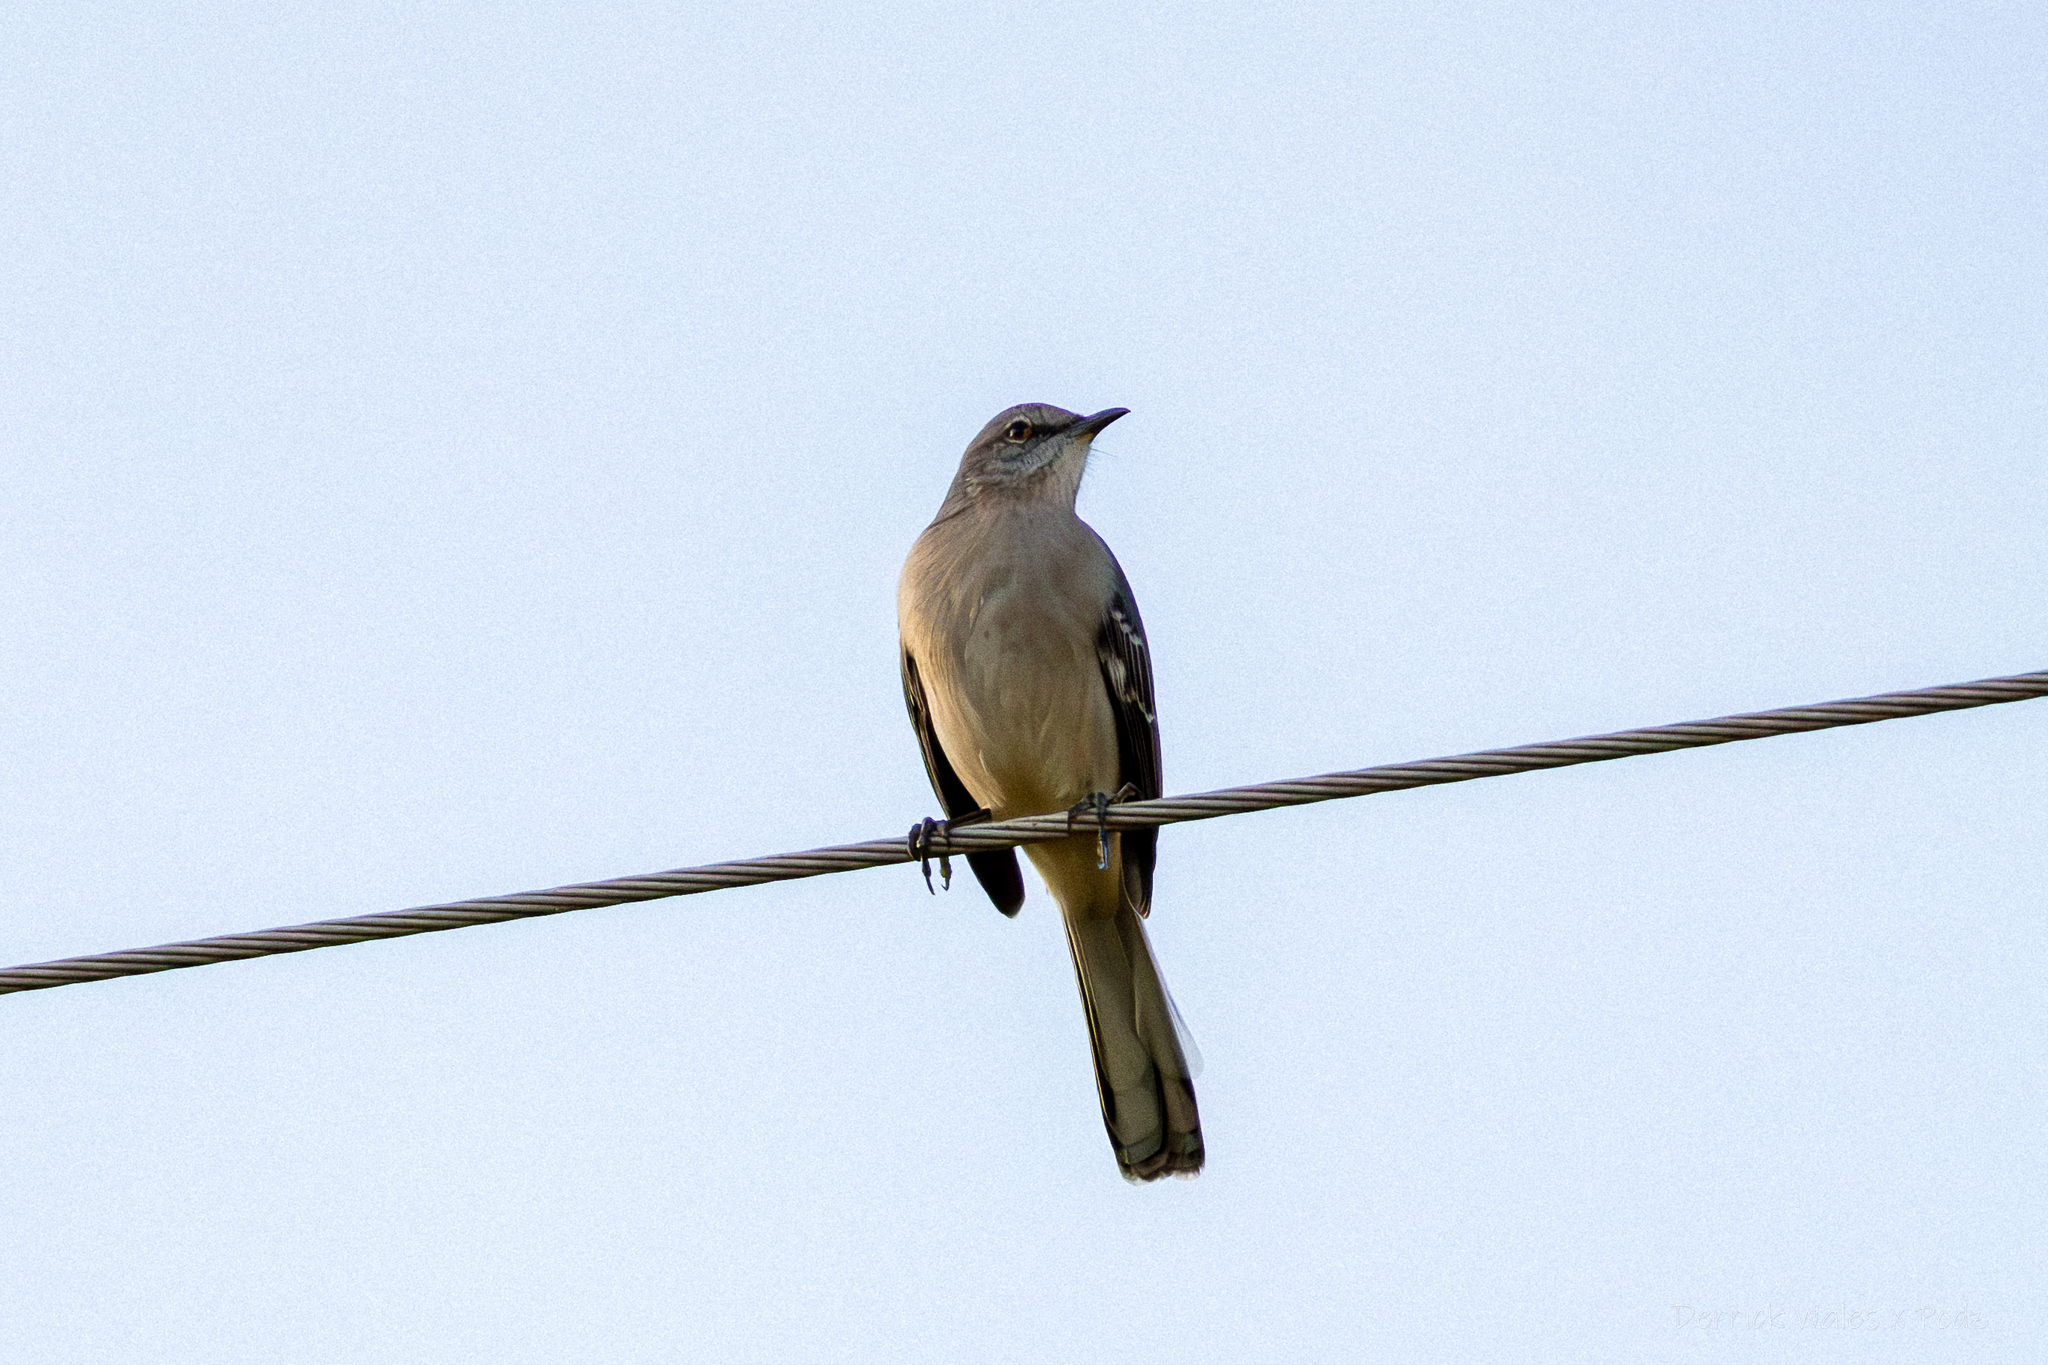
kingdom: Animalia
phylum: Chordata
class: Aves
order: Passeriformes
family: Mimidae
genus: Mimus
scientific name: Mimus polyglottos
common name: Northern mockingbird
